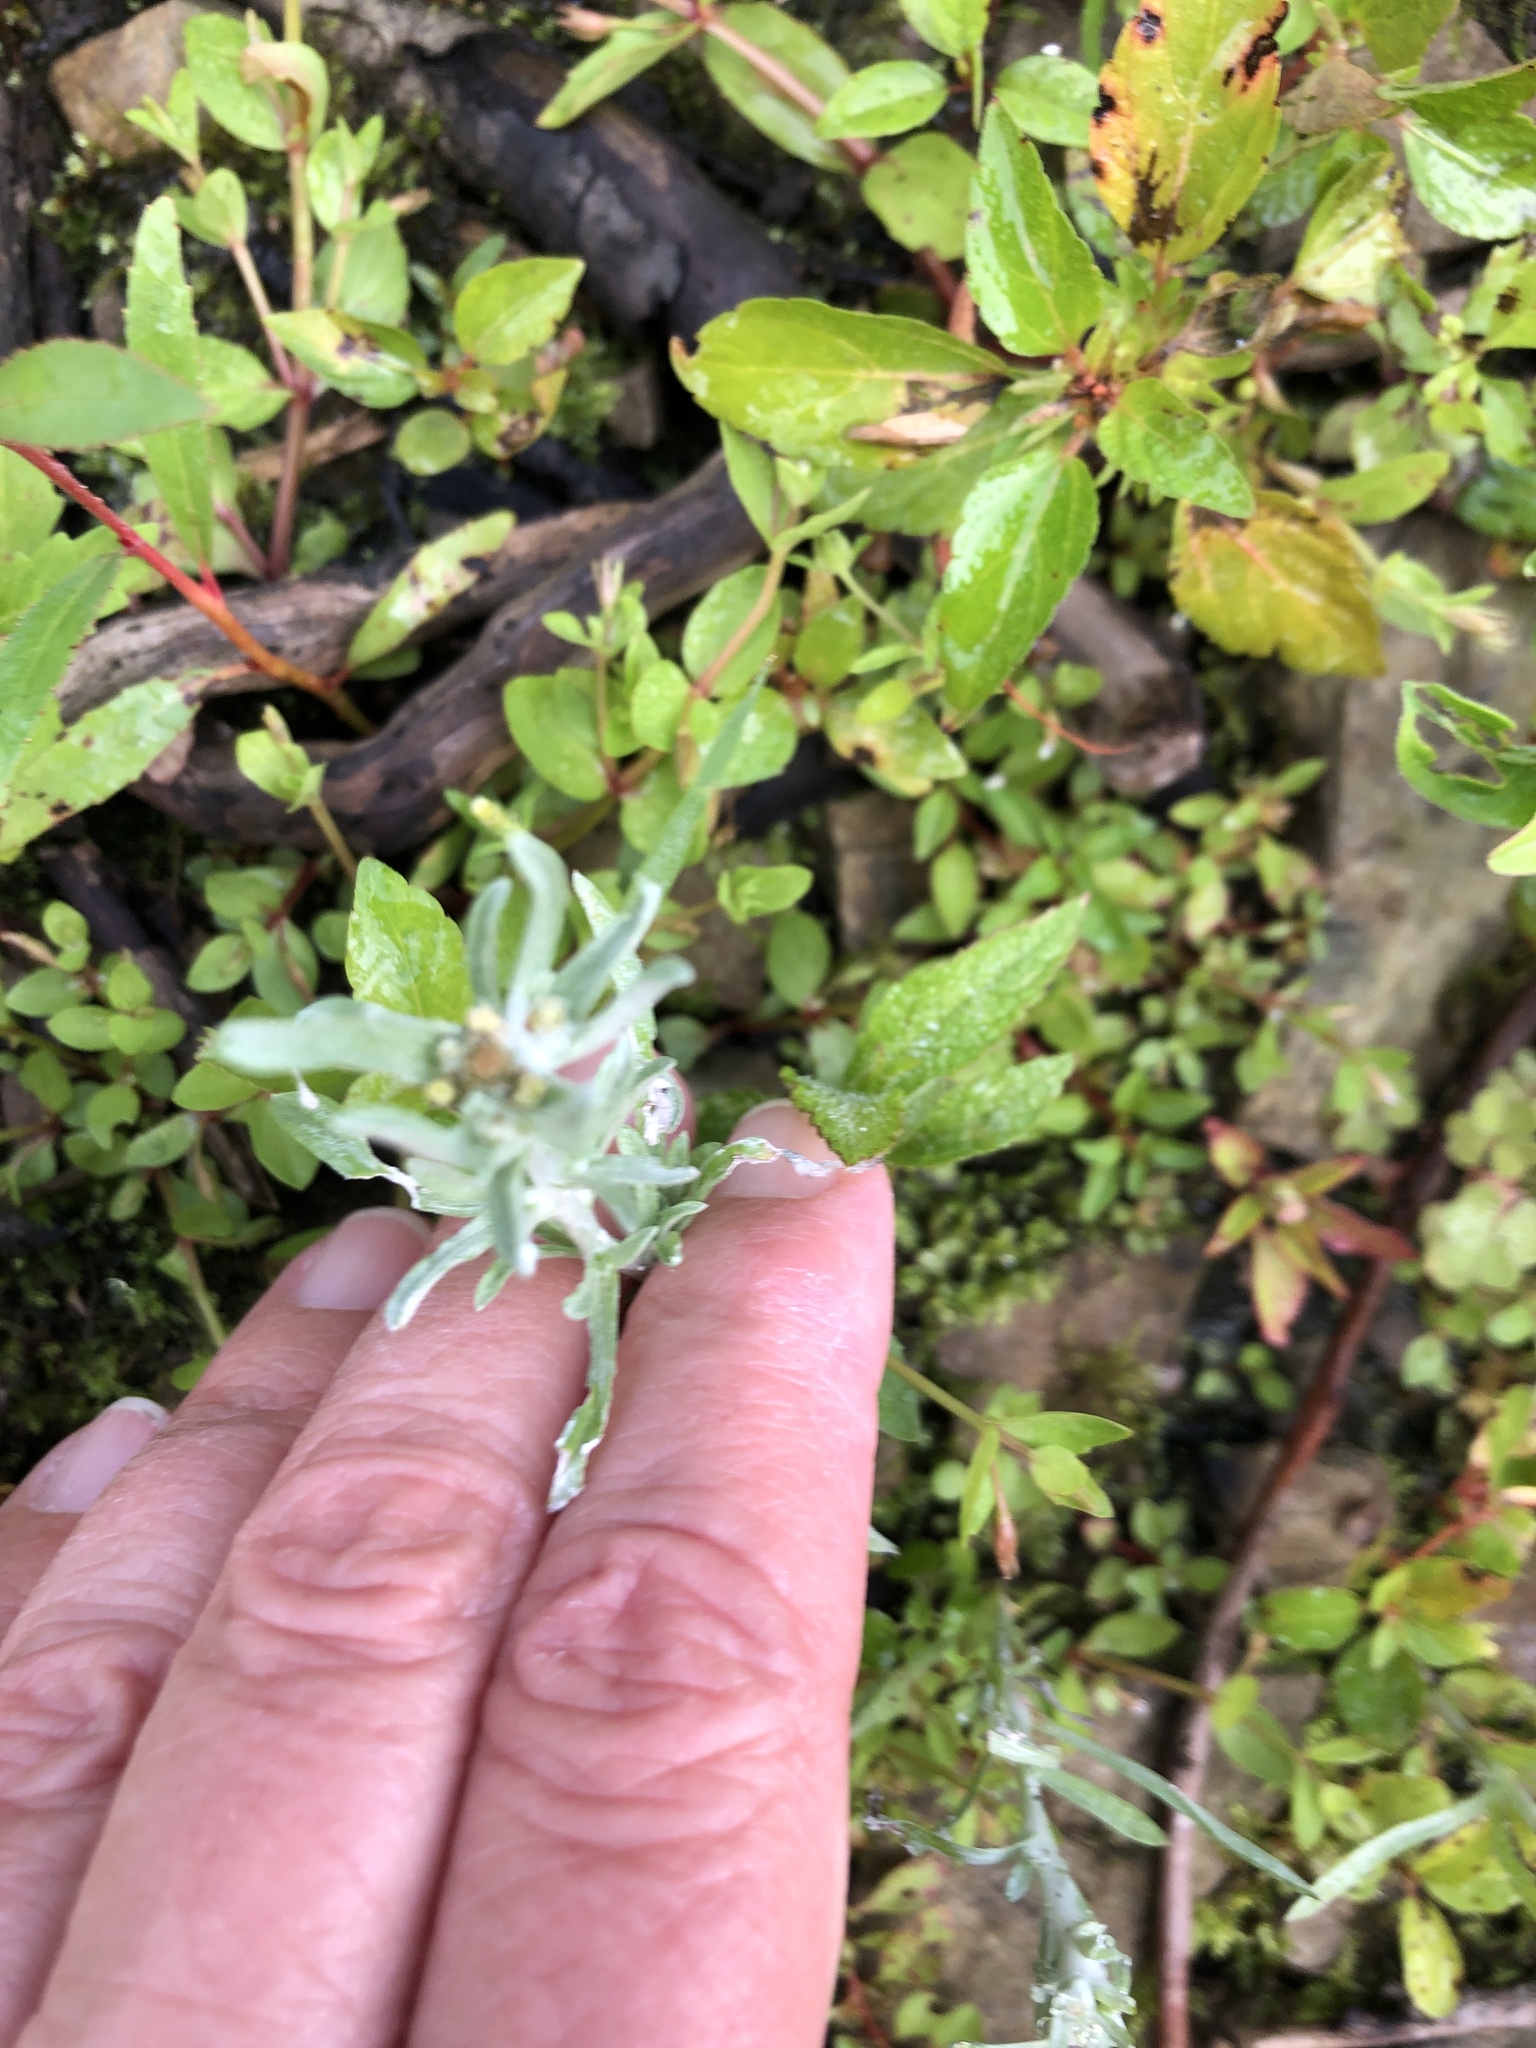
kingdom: Plantae
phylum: Tracheophyta
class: Magnoliopsida
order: Asterales
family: Asteraceae
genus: Gnaphalium
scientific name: Gnaphalium uliginosum
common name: Marsh cudweed
